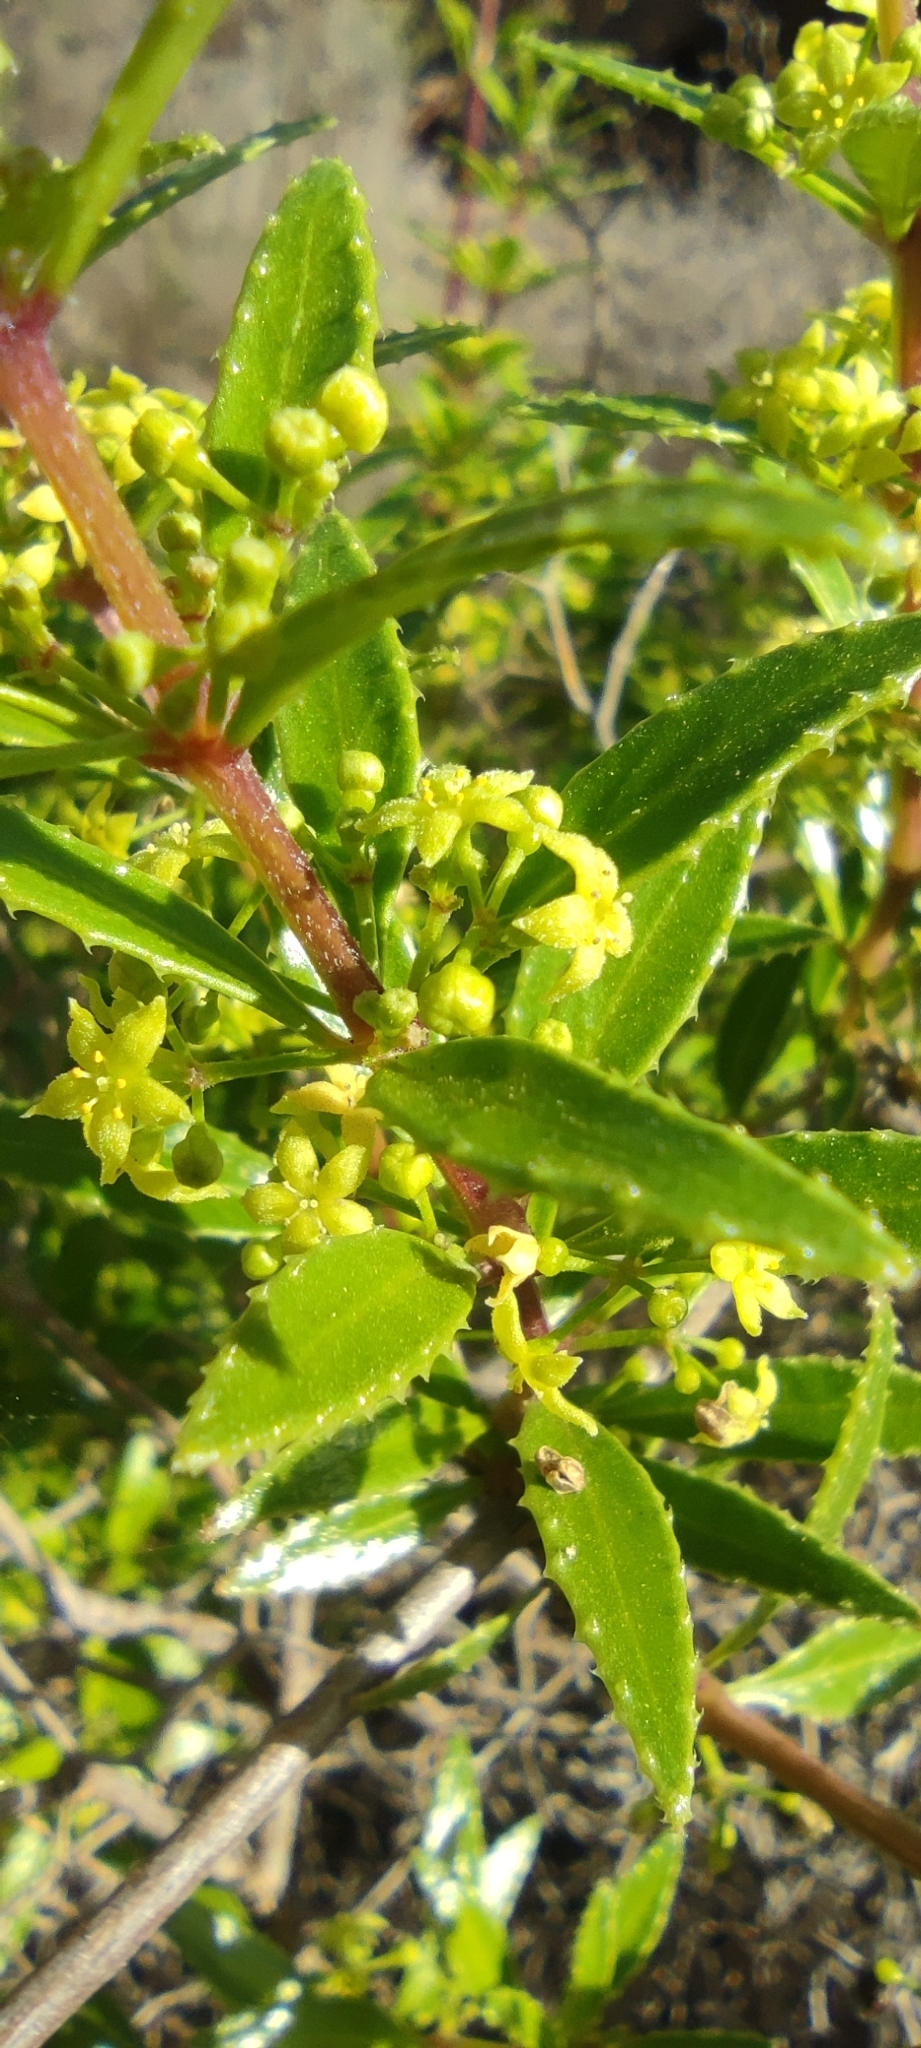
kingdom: Plantae
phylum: Tracheophyta
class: Magnoliopsida
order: Gentianales
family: Rubiaceae
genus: Rubia
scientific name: Rubia fruticosa
